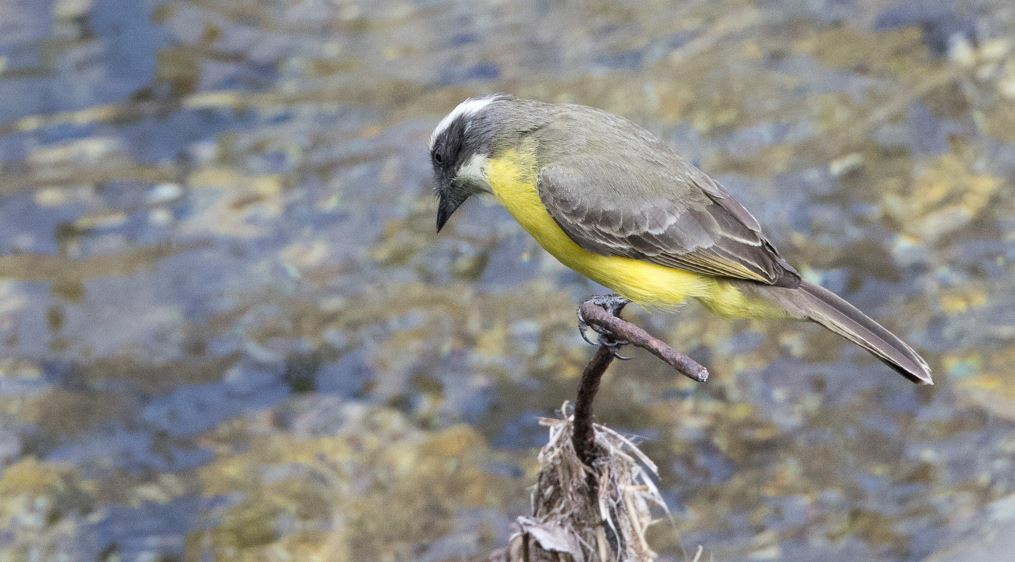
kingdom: Animalia
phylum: Chordata
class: Aves
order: Passeriformes
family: Tyrannidae
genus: Myiozetetes
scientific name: Myiozetetes similis
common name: Social flycatcher
